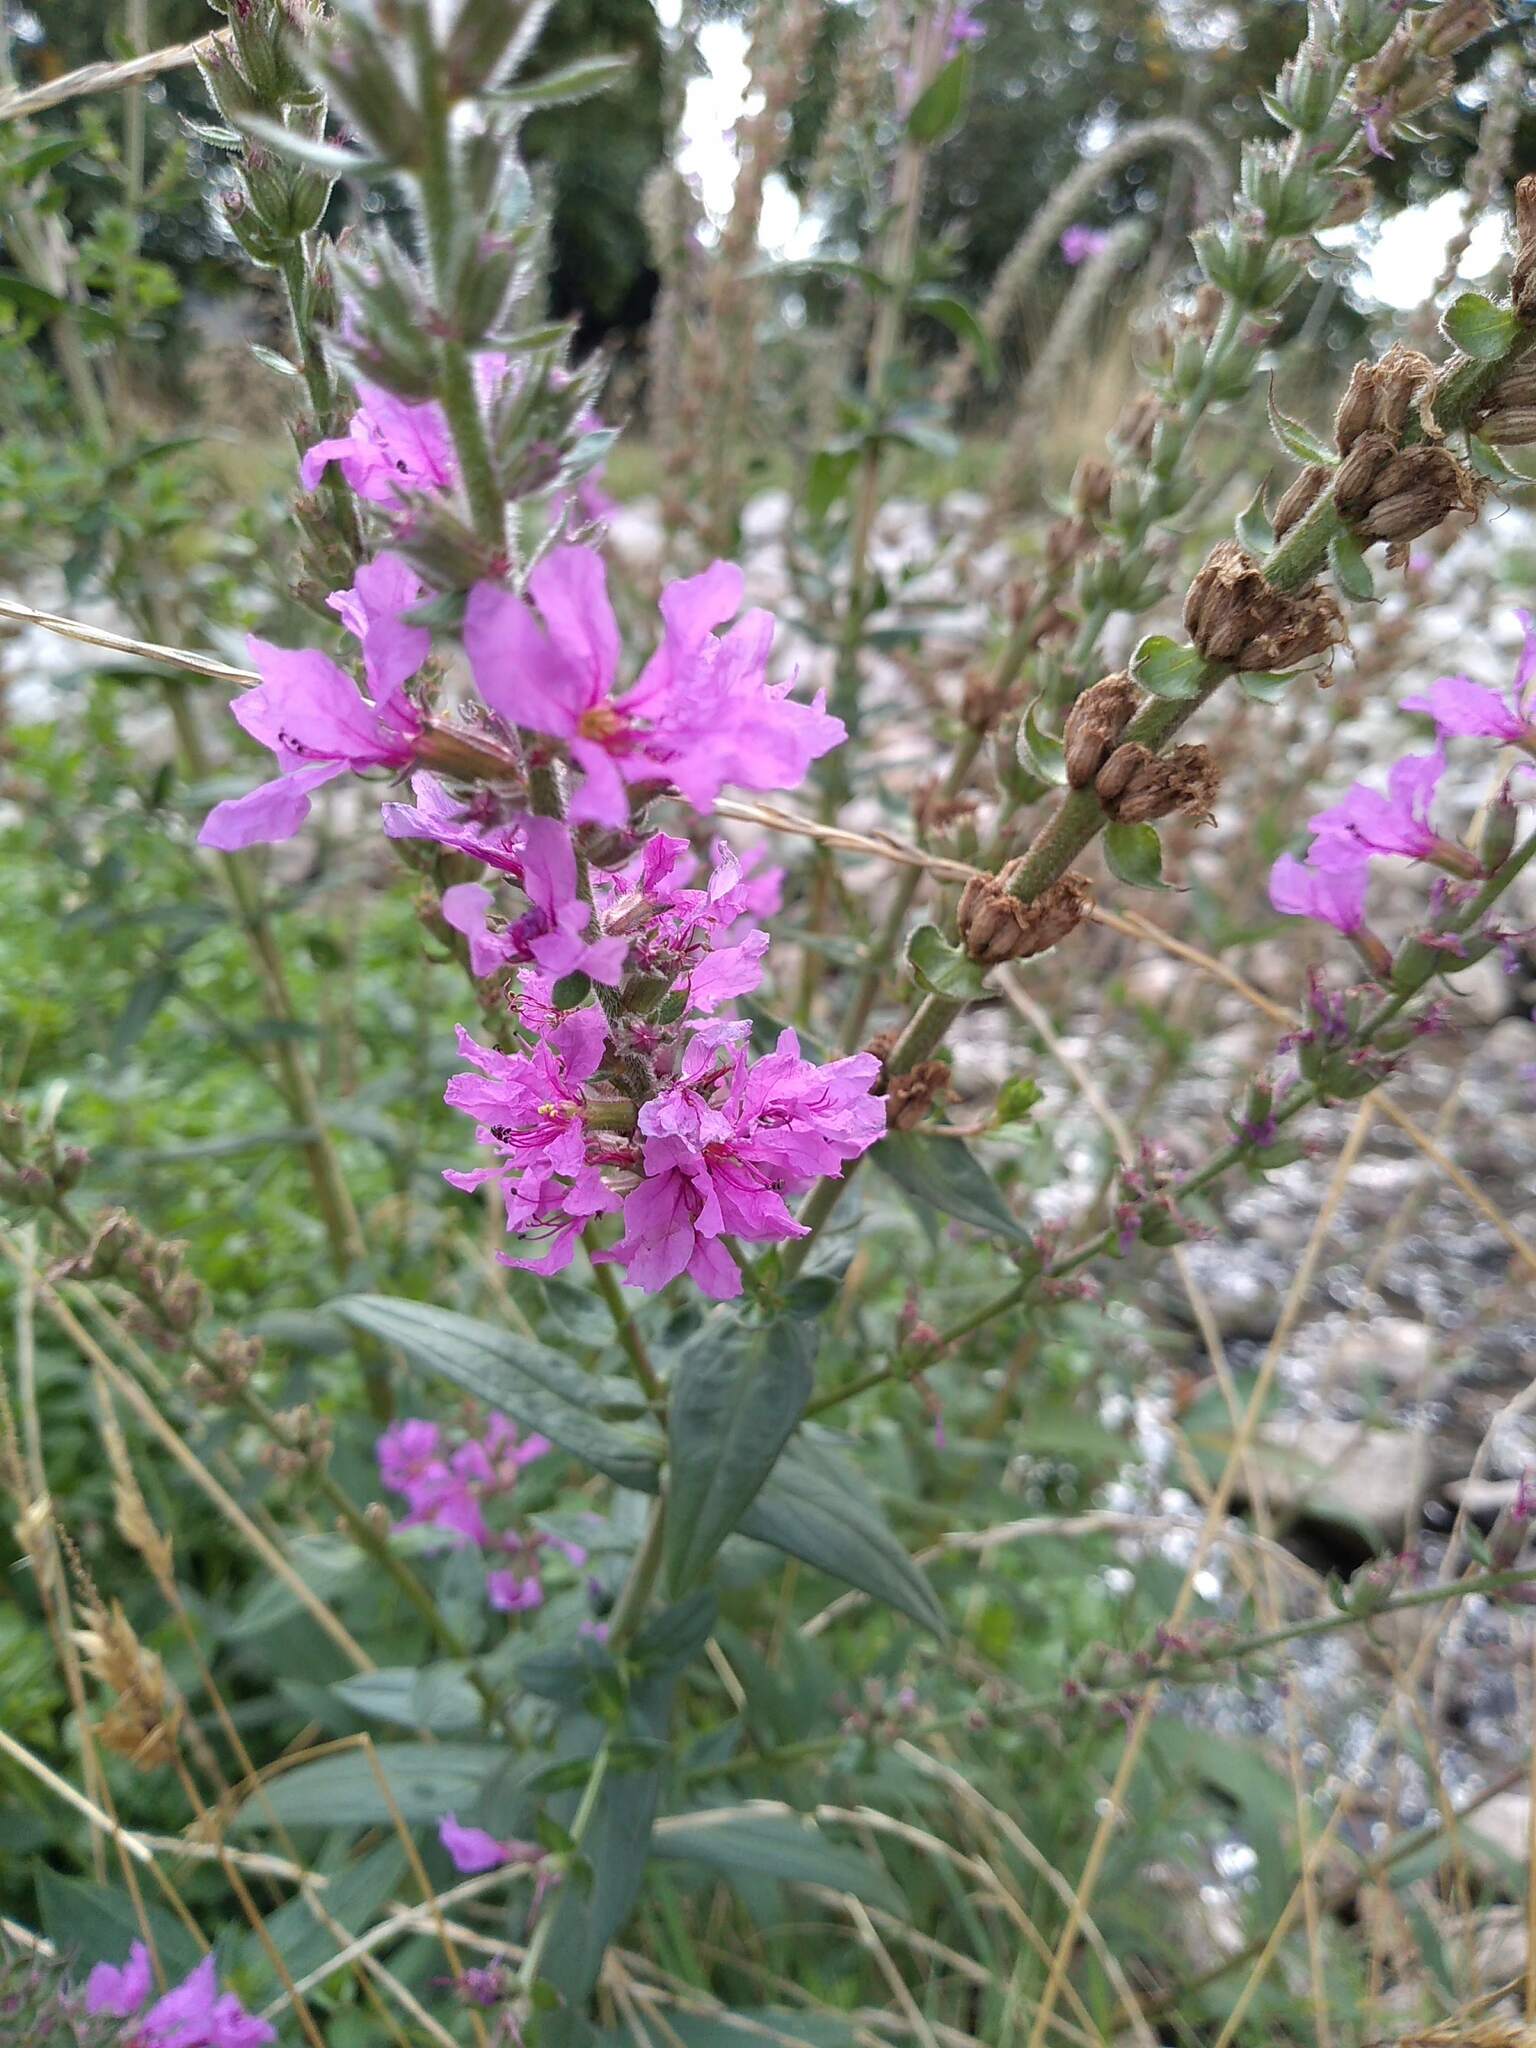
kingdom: Plantae
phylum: Tracheophyta
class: Magnoliopsida
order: Myrtales
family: Lythraceae
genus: Lythrum
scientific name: Lythrum salicaria
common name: Purple loosestrife
